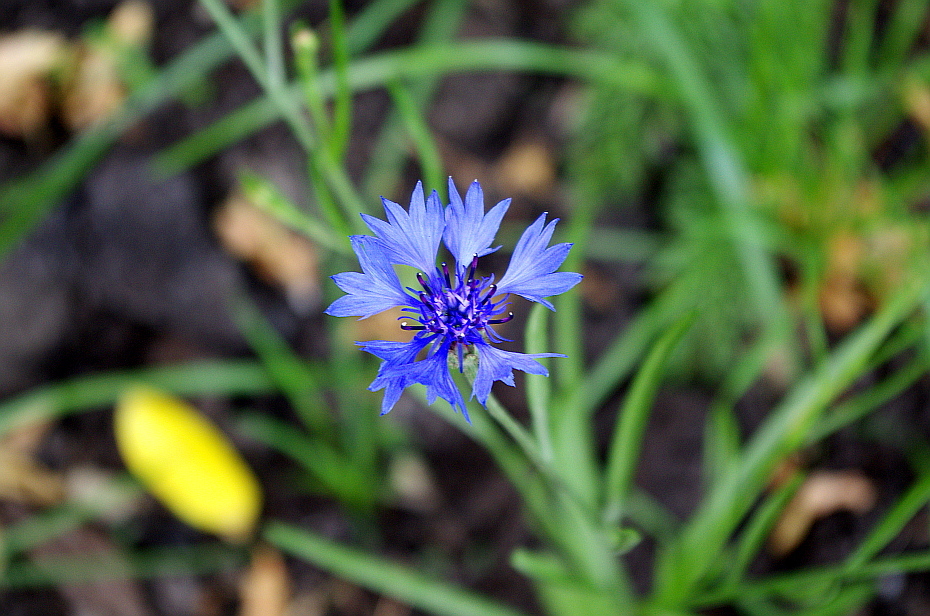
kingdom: Plantae
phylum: Tracheophyta
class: Magnoliopsida
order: Asterales
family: Asteraceae
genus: Centaurea
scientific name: Centaurea cyanus
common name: Cornflower
